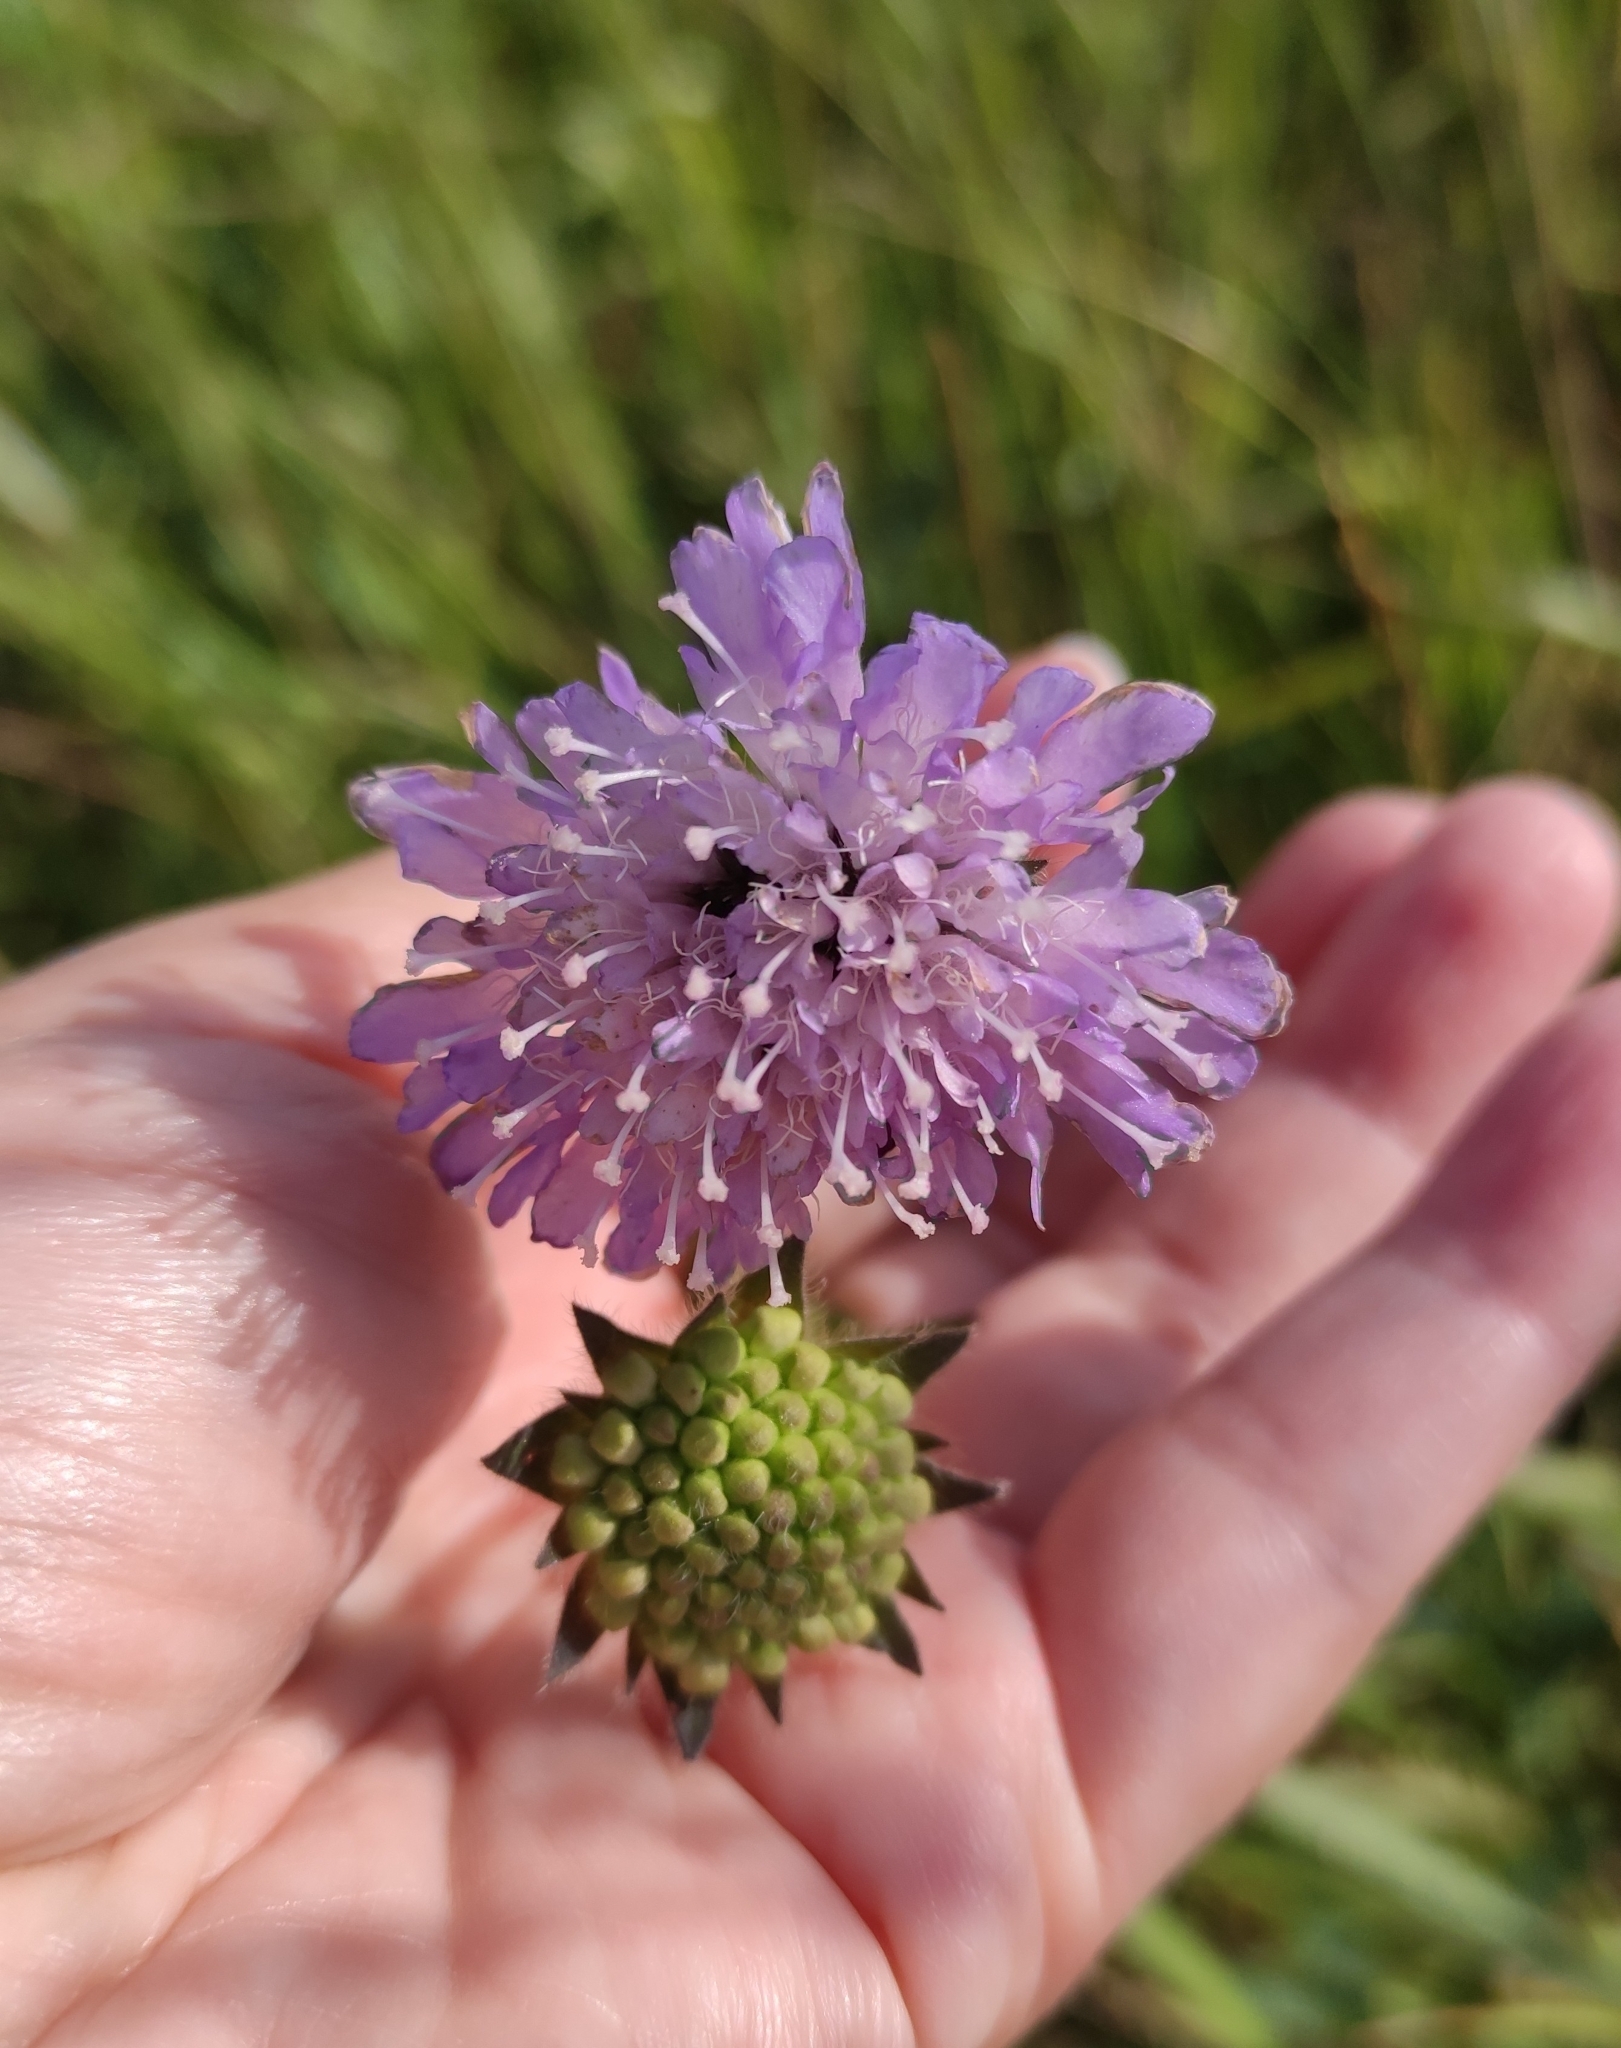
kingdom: Plantae
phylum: Tracheophyta
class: Magnoliopsida
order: Dipsacales
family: Caprifoliaceae
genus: Knautia
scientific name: Knautia arvensis
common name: Field scabiosa
